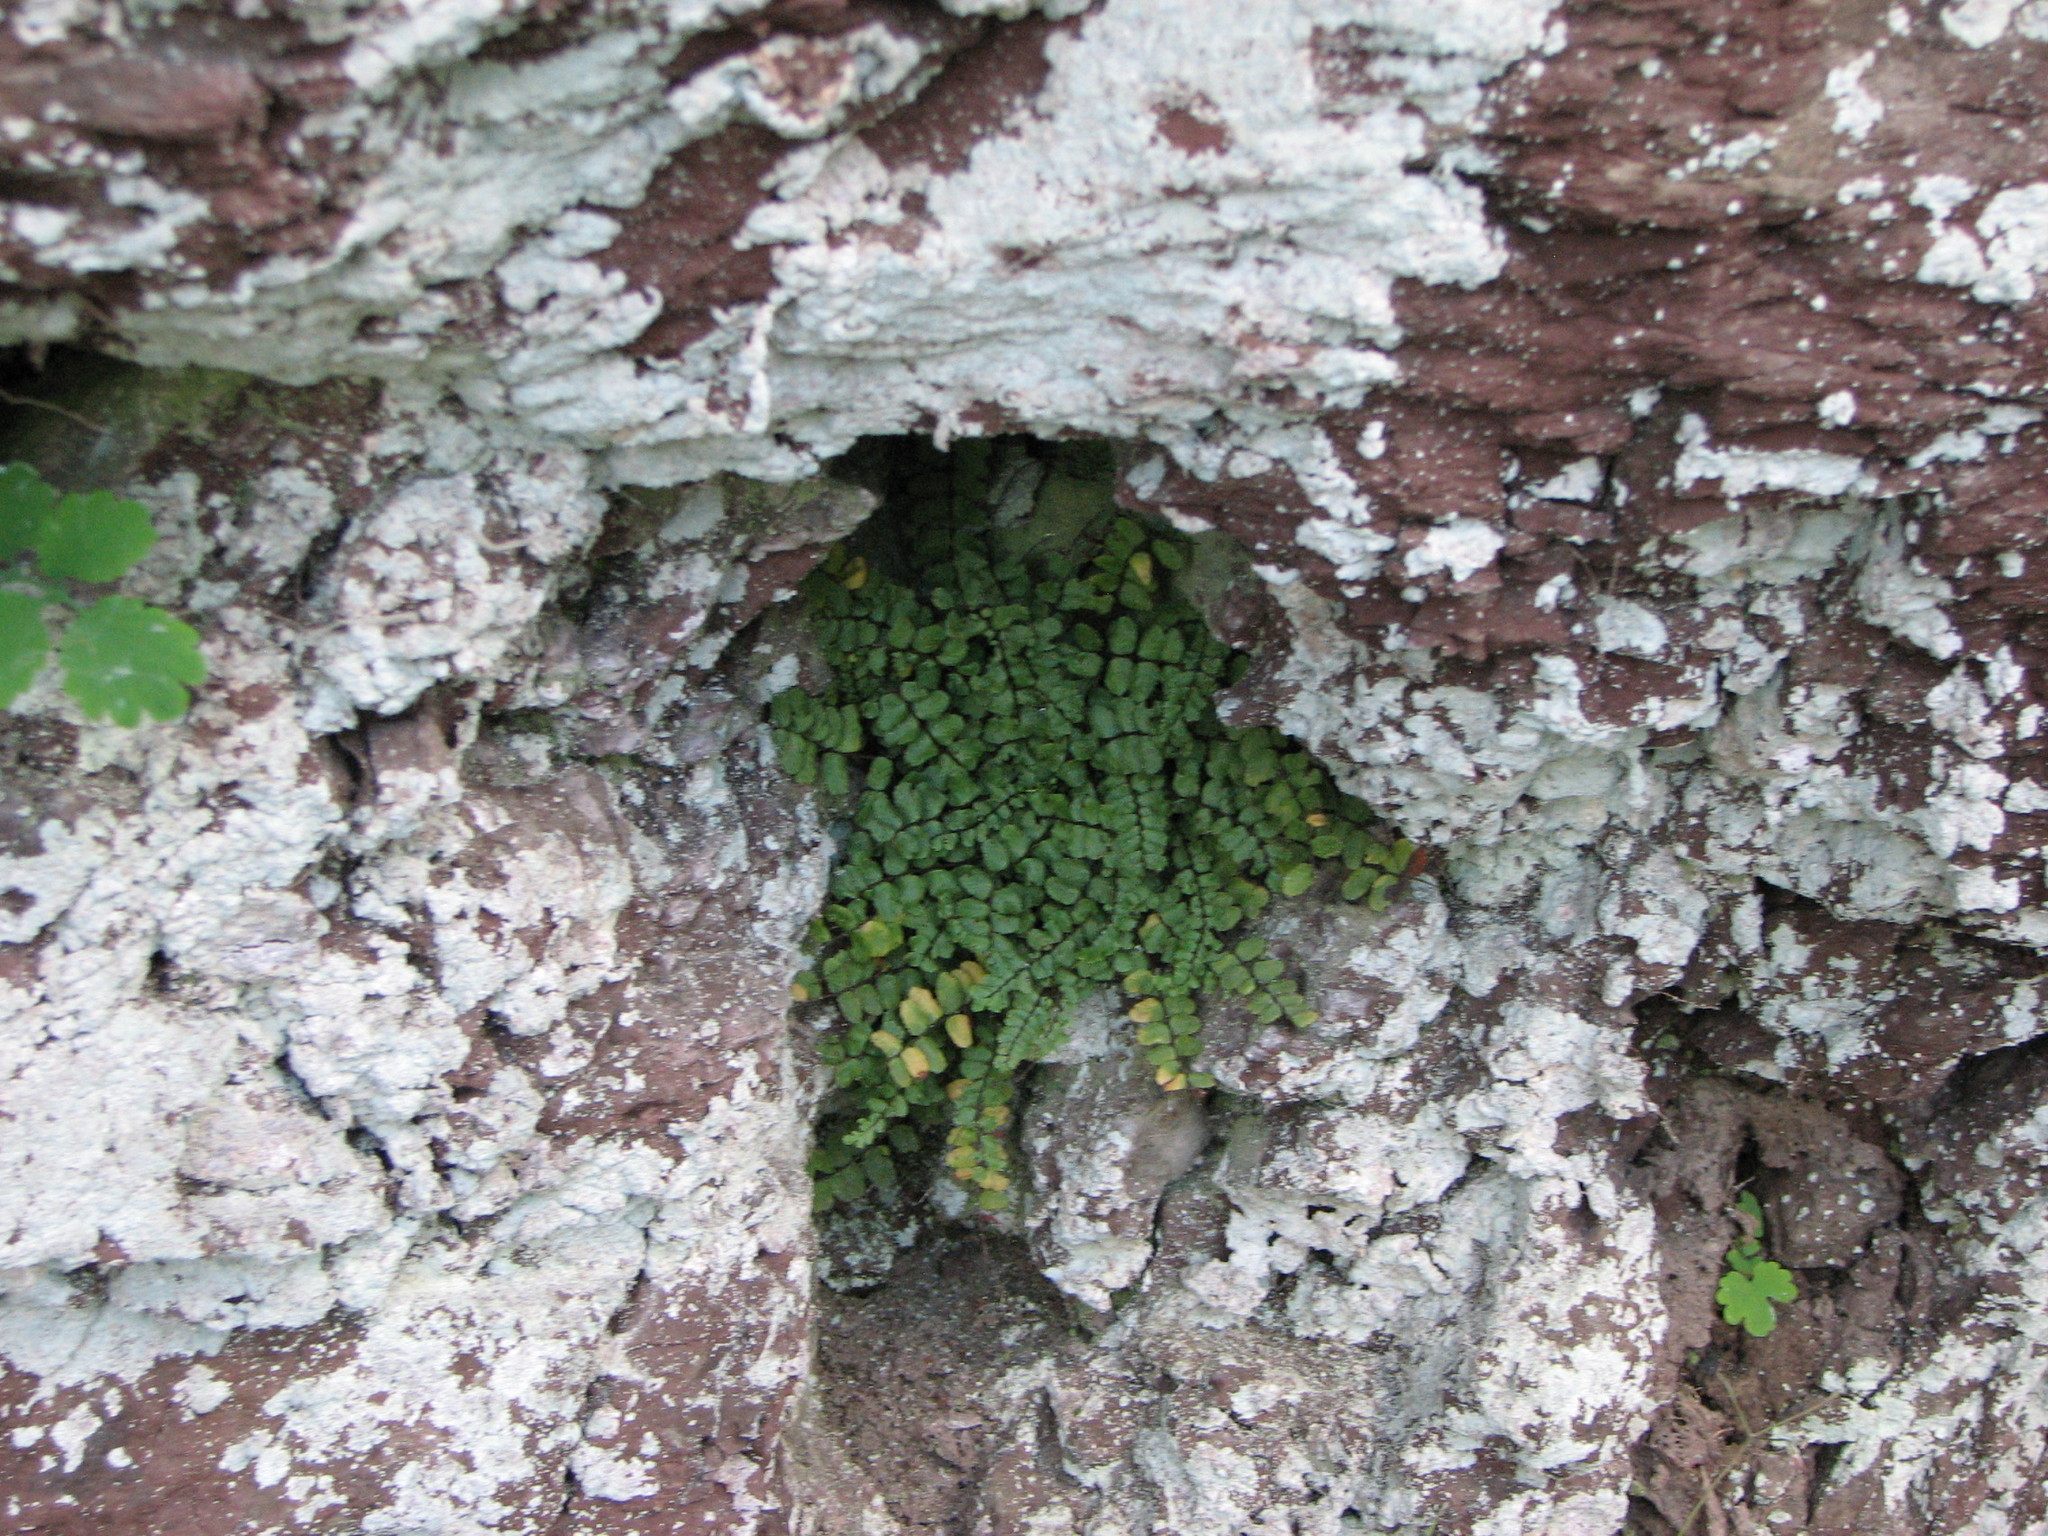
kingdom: Plantae
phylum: Tracheophyta
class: Polypodiopsida
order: Polypodiales
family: Aspleniaceae
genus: Asplenium
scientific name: Asplenium trichomanes
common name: Maidenhair spleenwort
